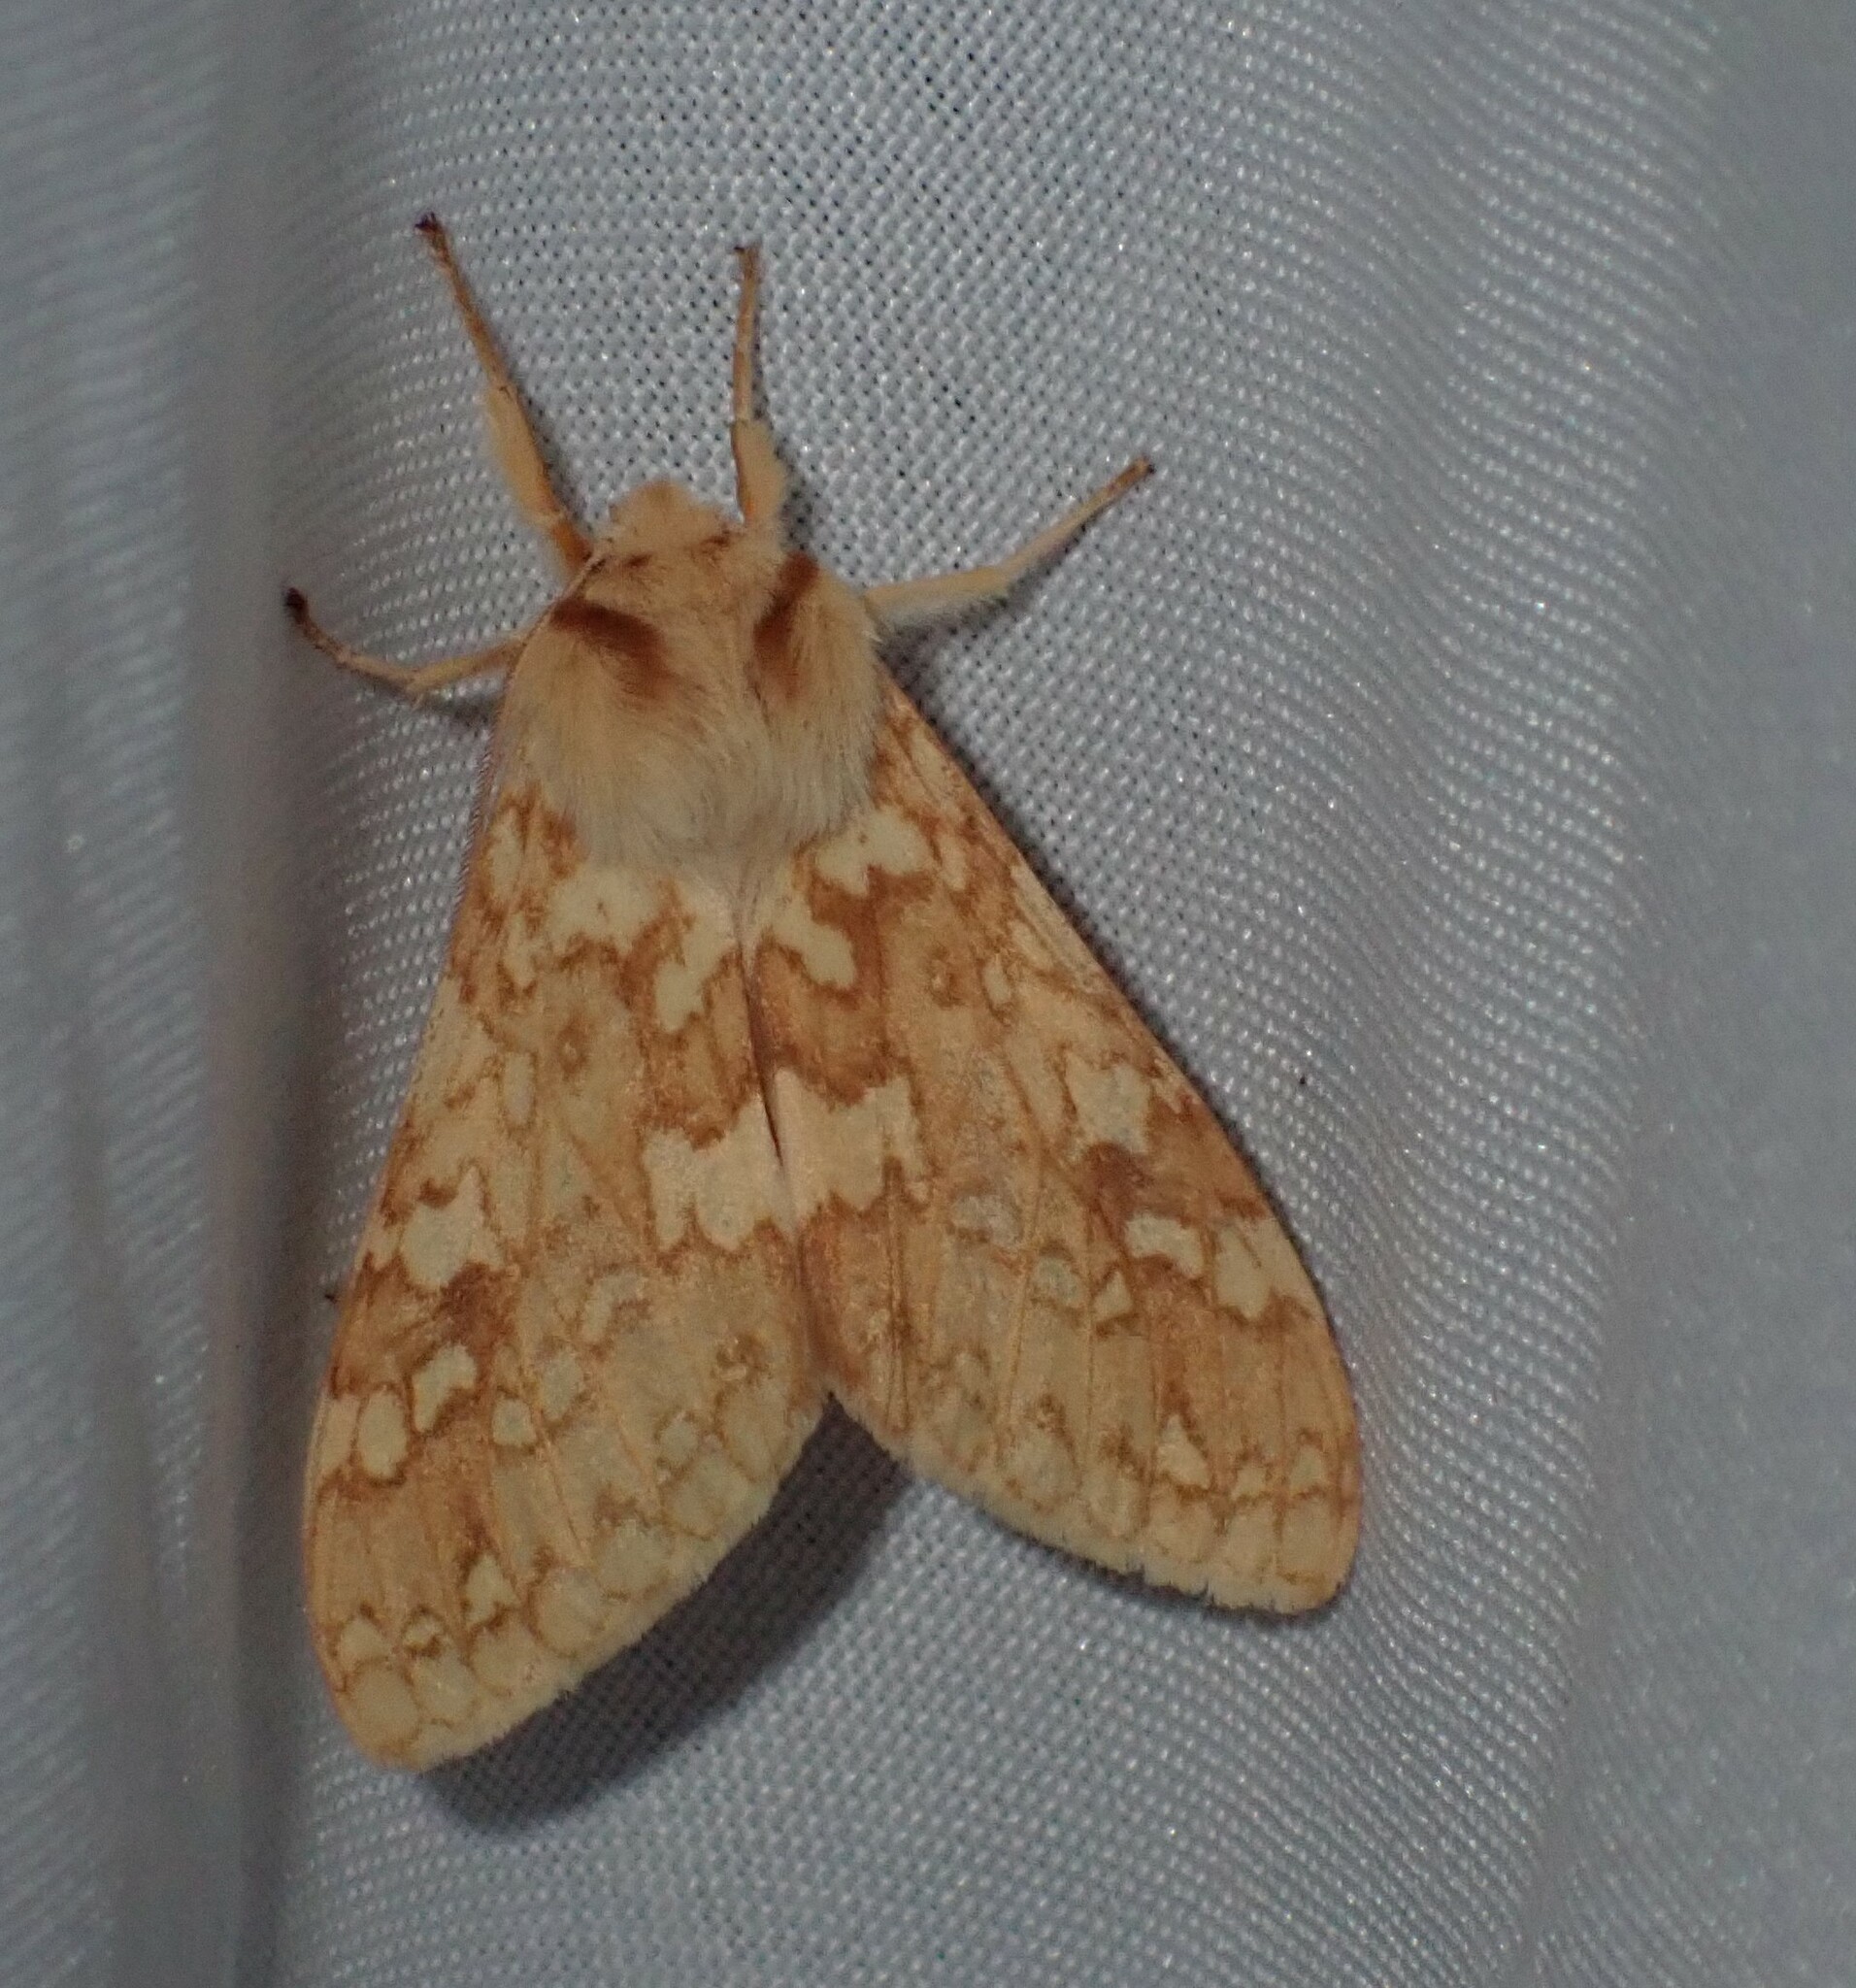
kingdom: Animalia
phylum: Arthropoda
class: Insecta
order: Lepidoptera
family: Erebidae
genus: Lophocampa
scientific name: Lophocampa maculata
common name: Spotted tussock moth
